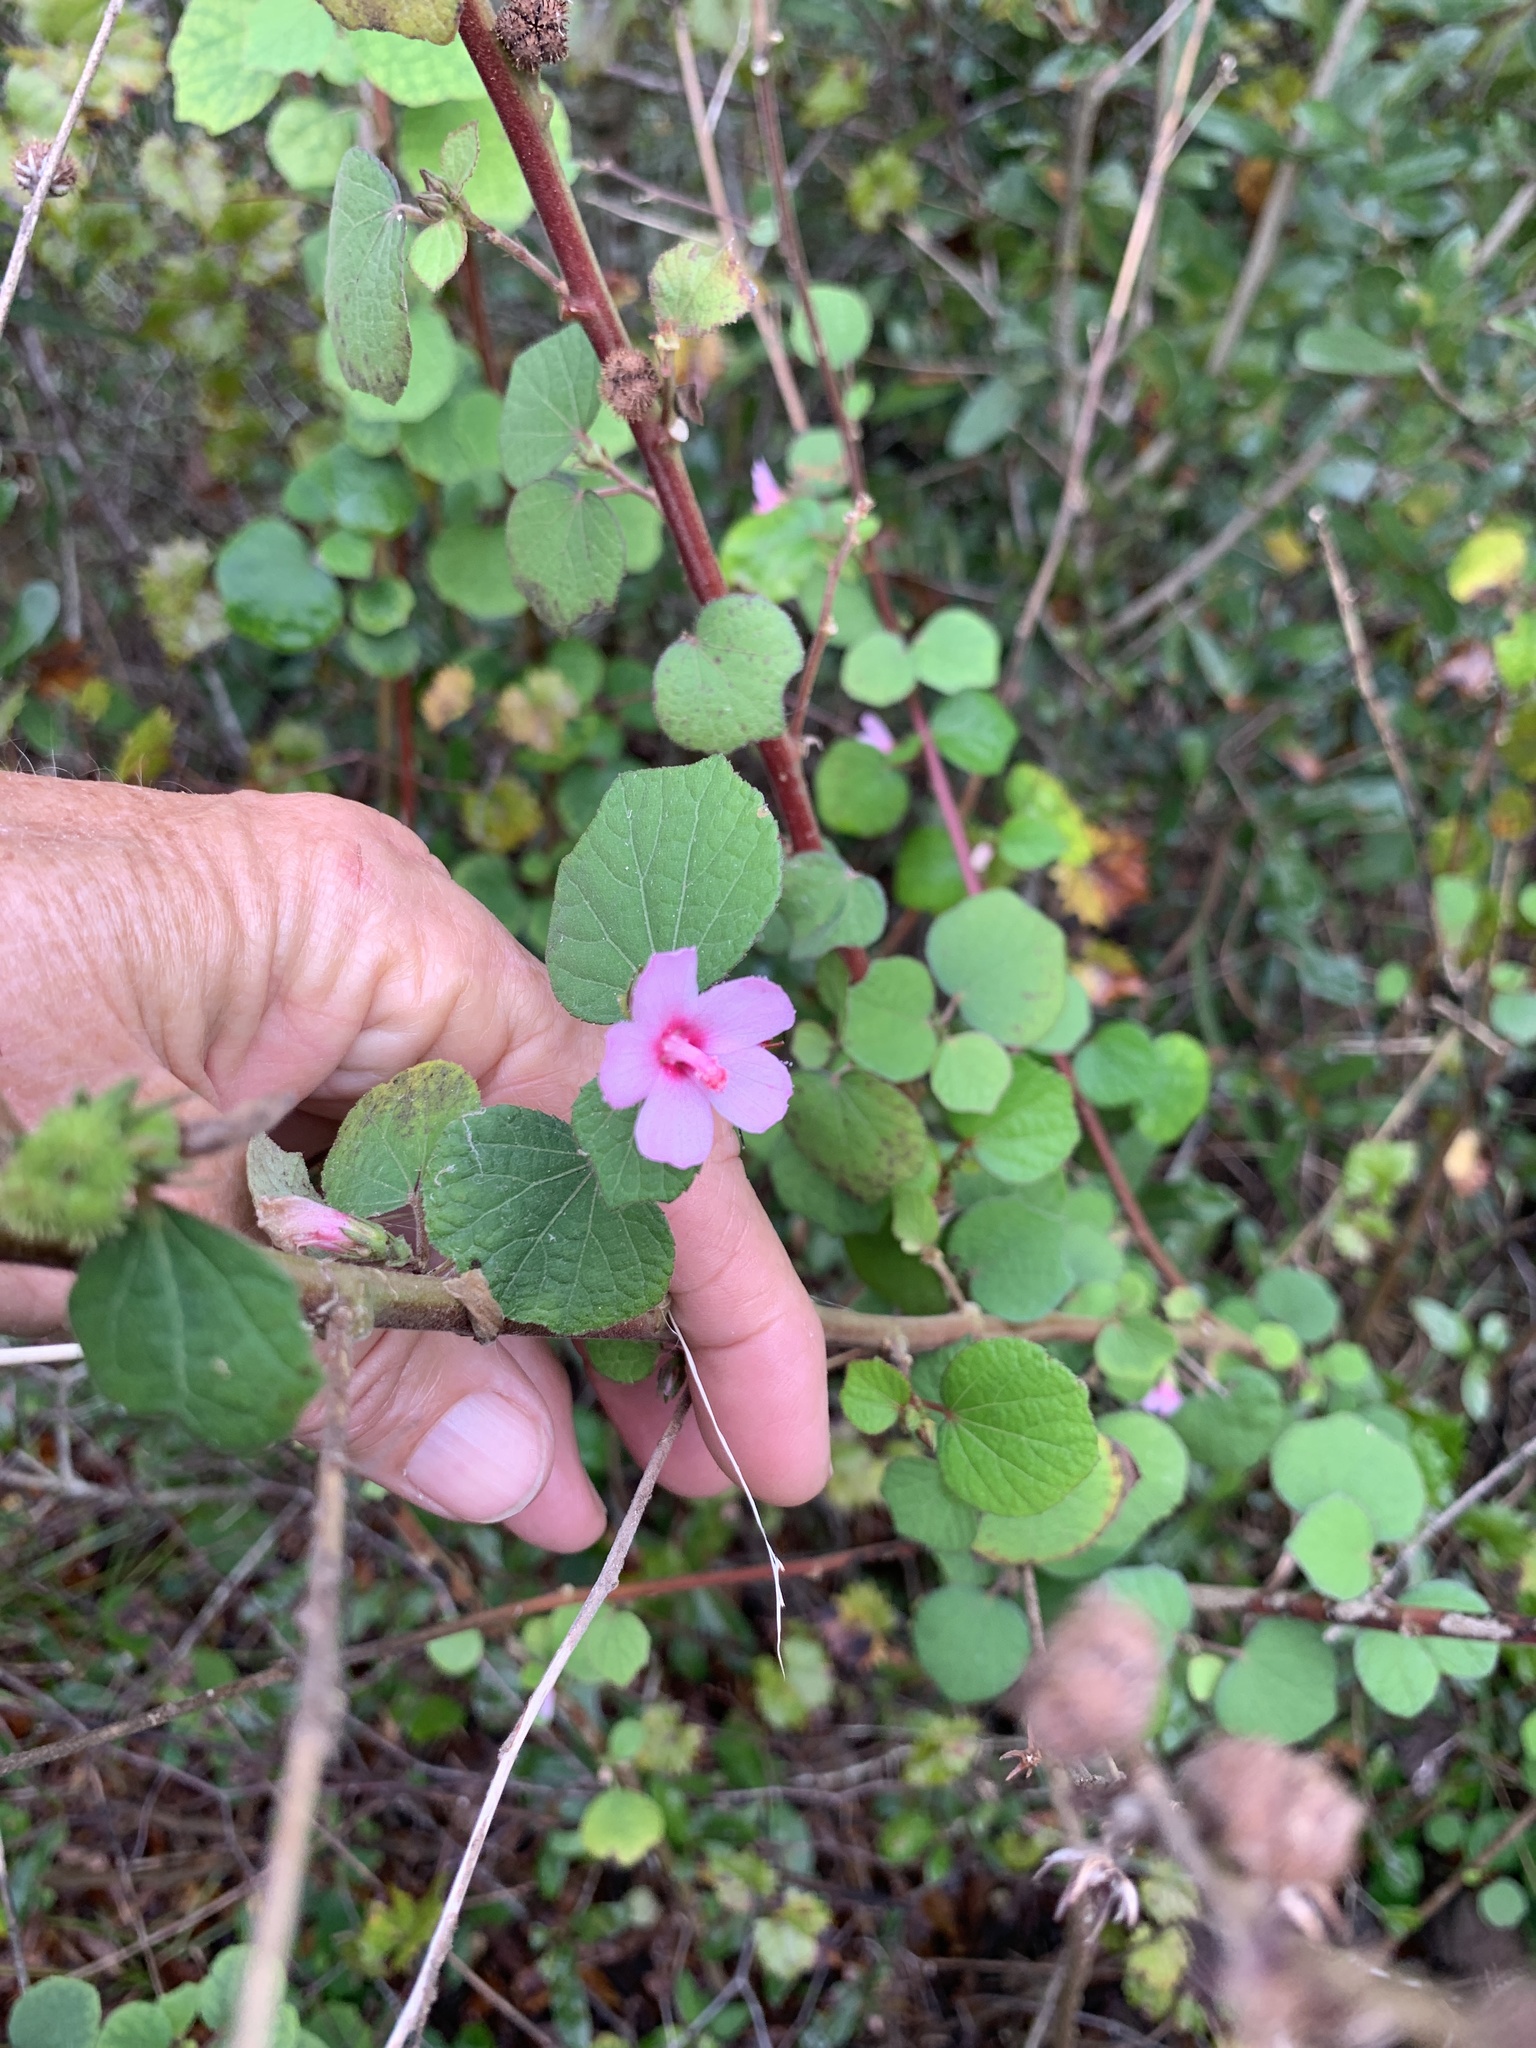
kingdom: Plantae
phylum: Tracheophyta
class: Magnoliopsida
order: Malvales
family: Malvaceae
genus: Urena
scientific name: Urena lobata
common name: Caesarweed
